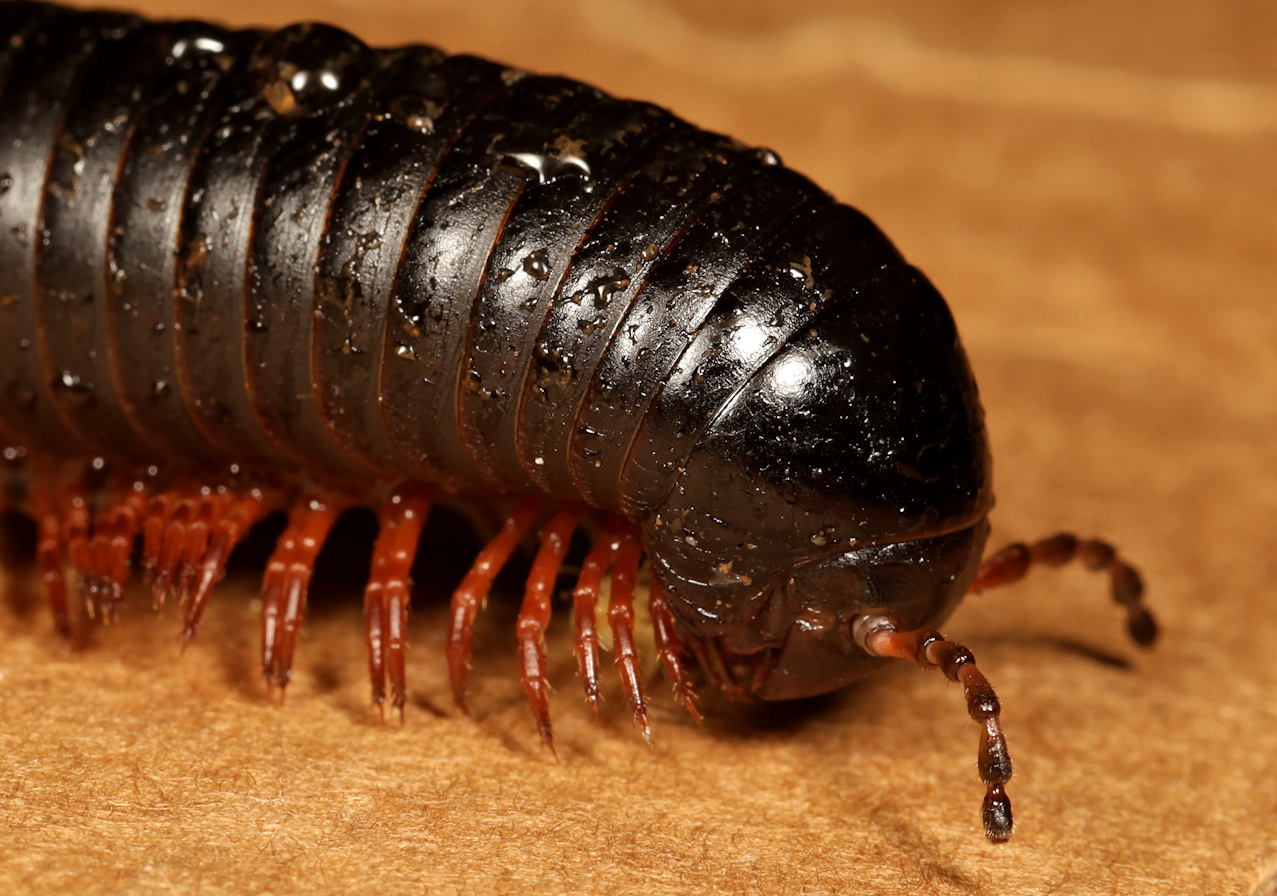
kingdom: Animalia
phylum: Arthropoda
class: Diplopoda
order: Spirostreptida
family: Spirostreptidae
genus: Doratogonus
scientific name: Doratogonus rugifrons
